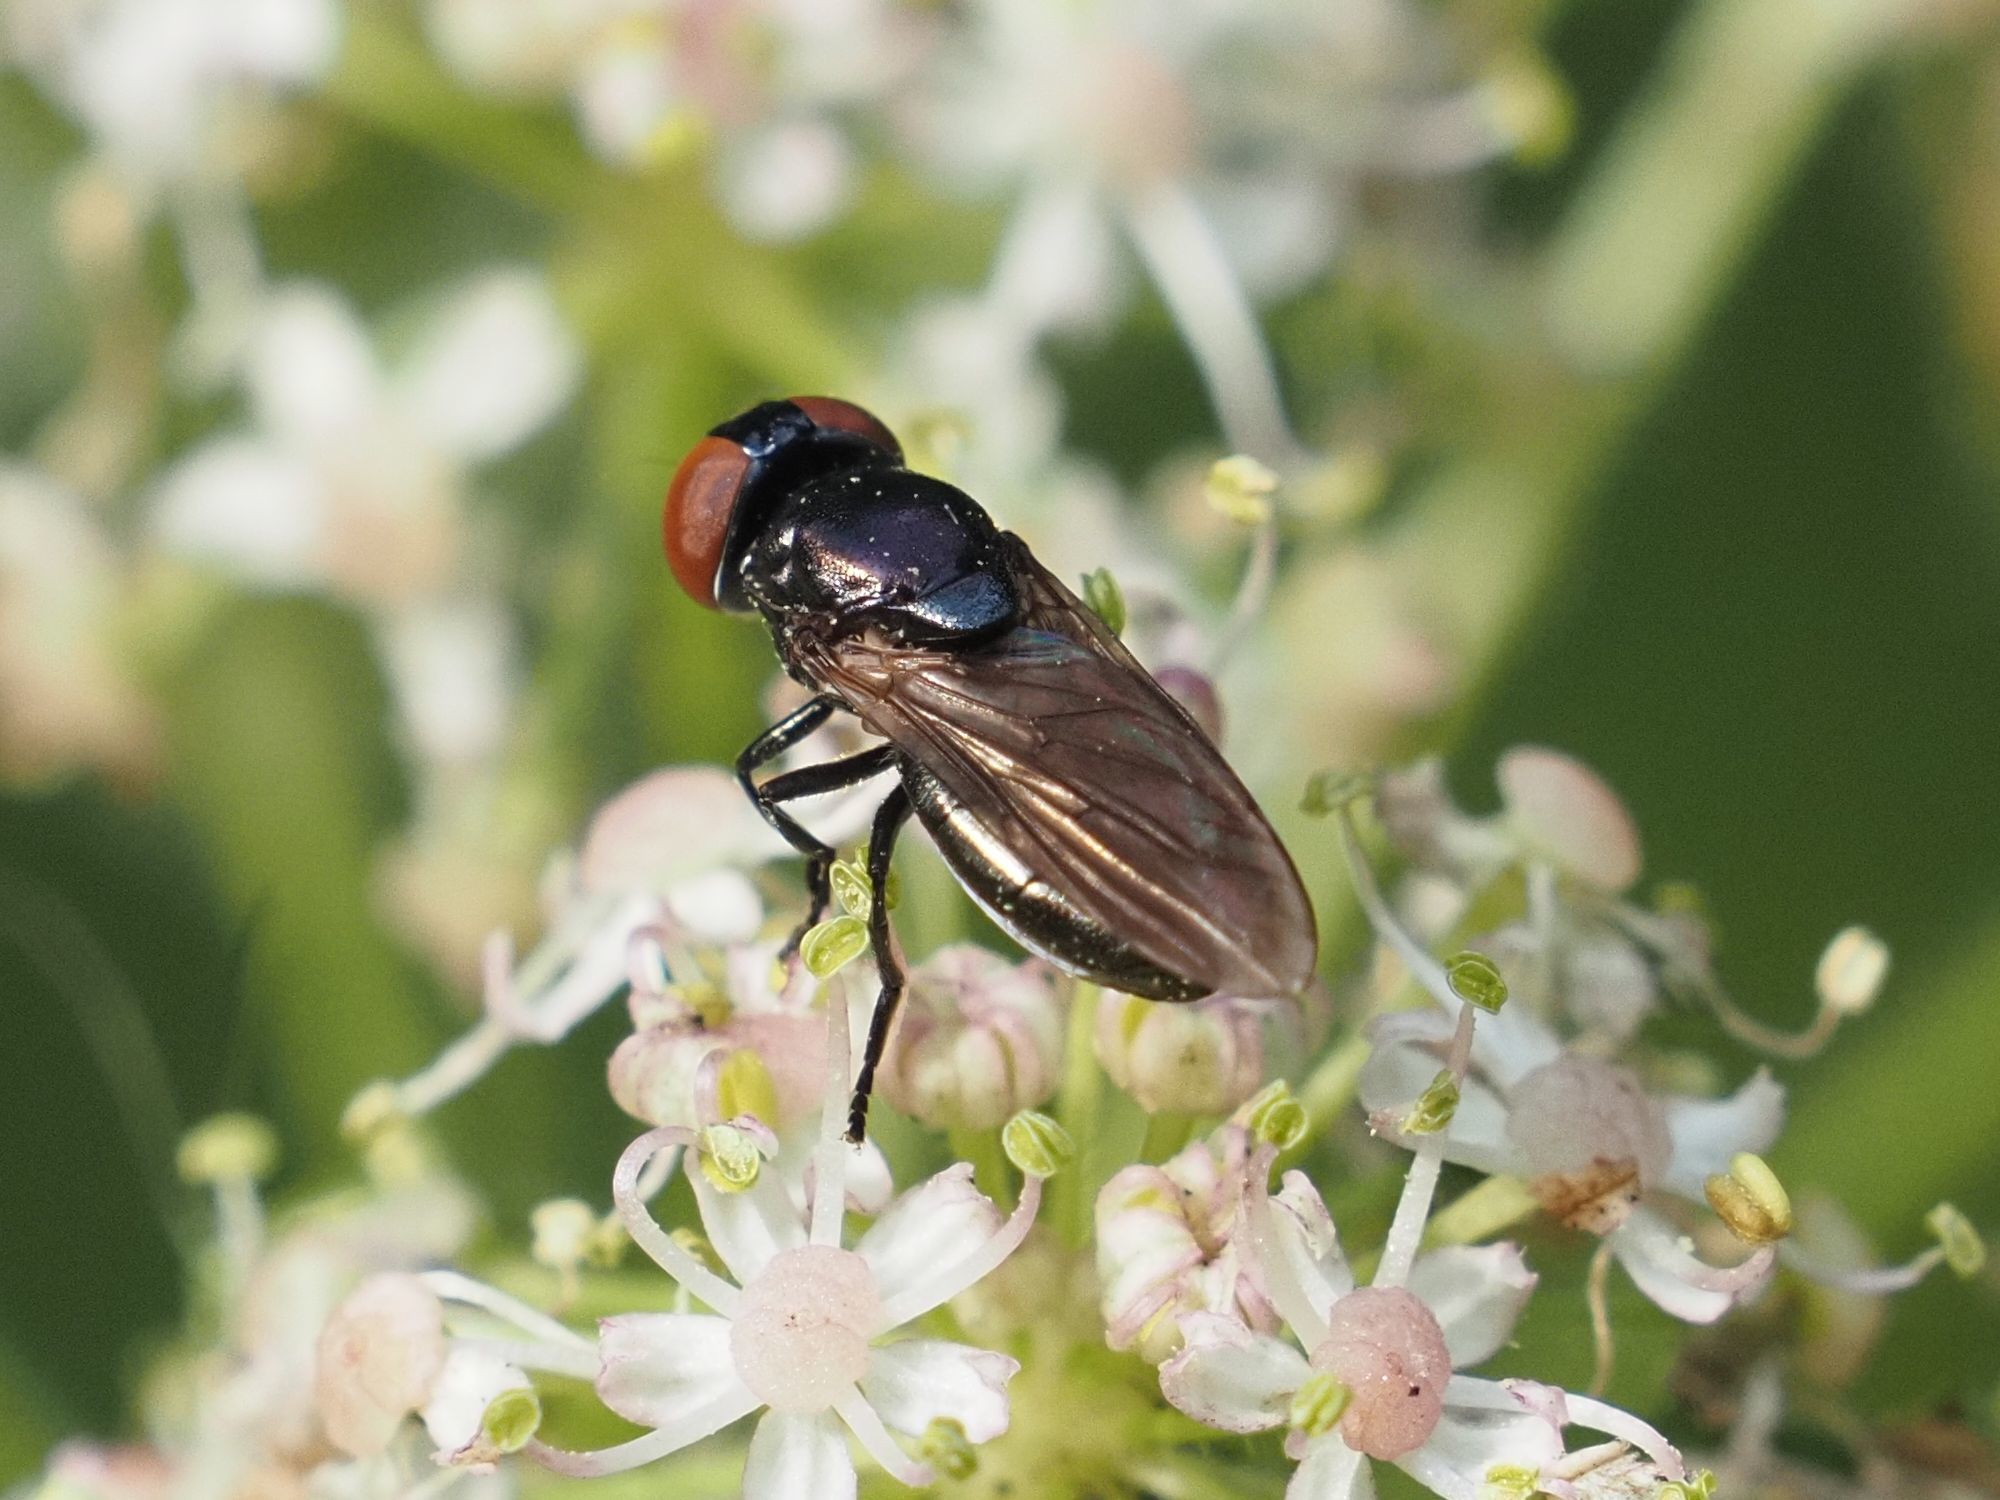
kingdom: Animalia
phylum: Arthropoda
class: Insecta
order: Diptera
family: Syrphidae
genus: Chrysogaster
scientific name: Chrysogaster solstitialis
